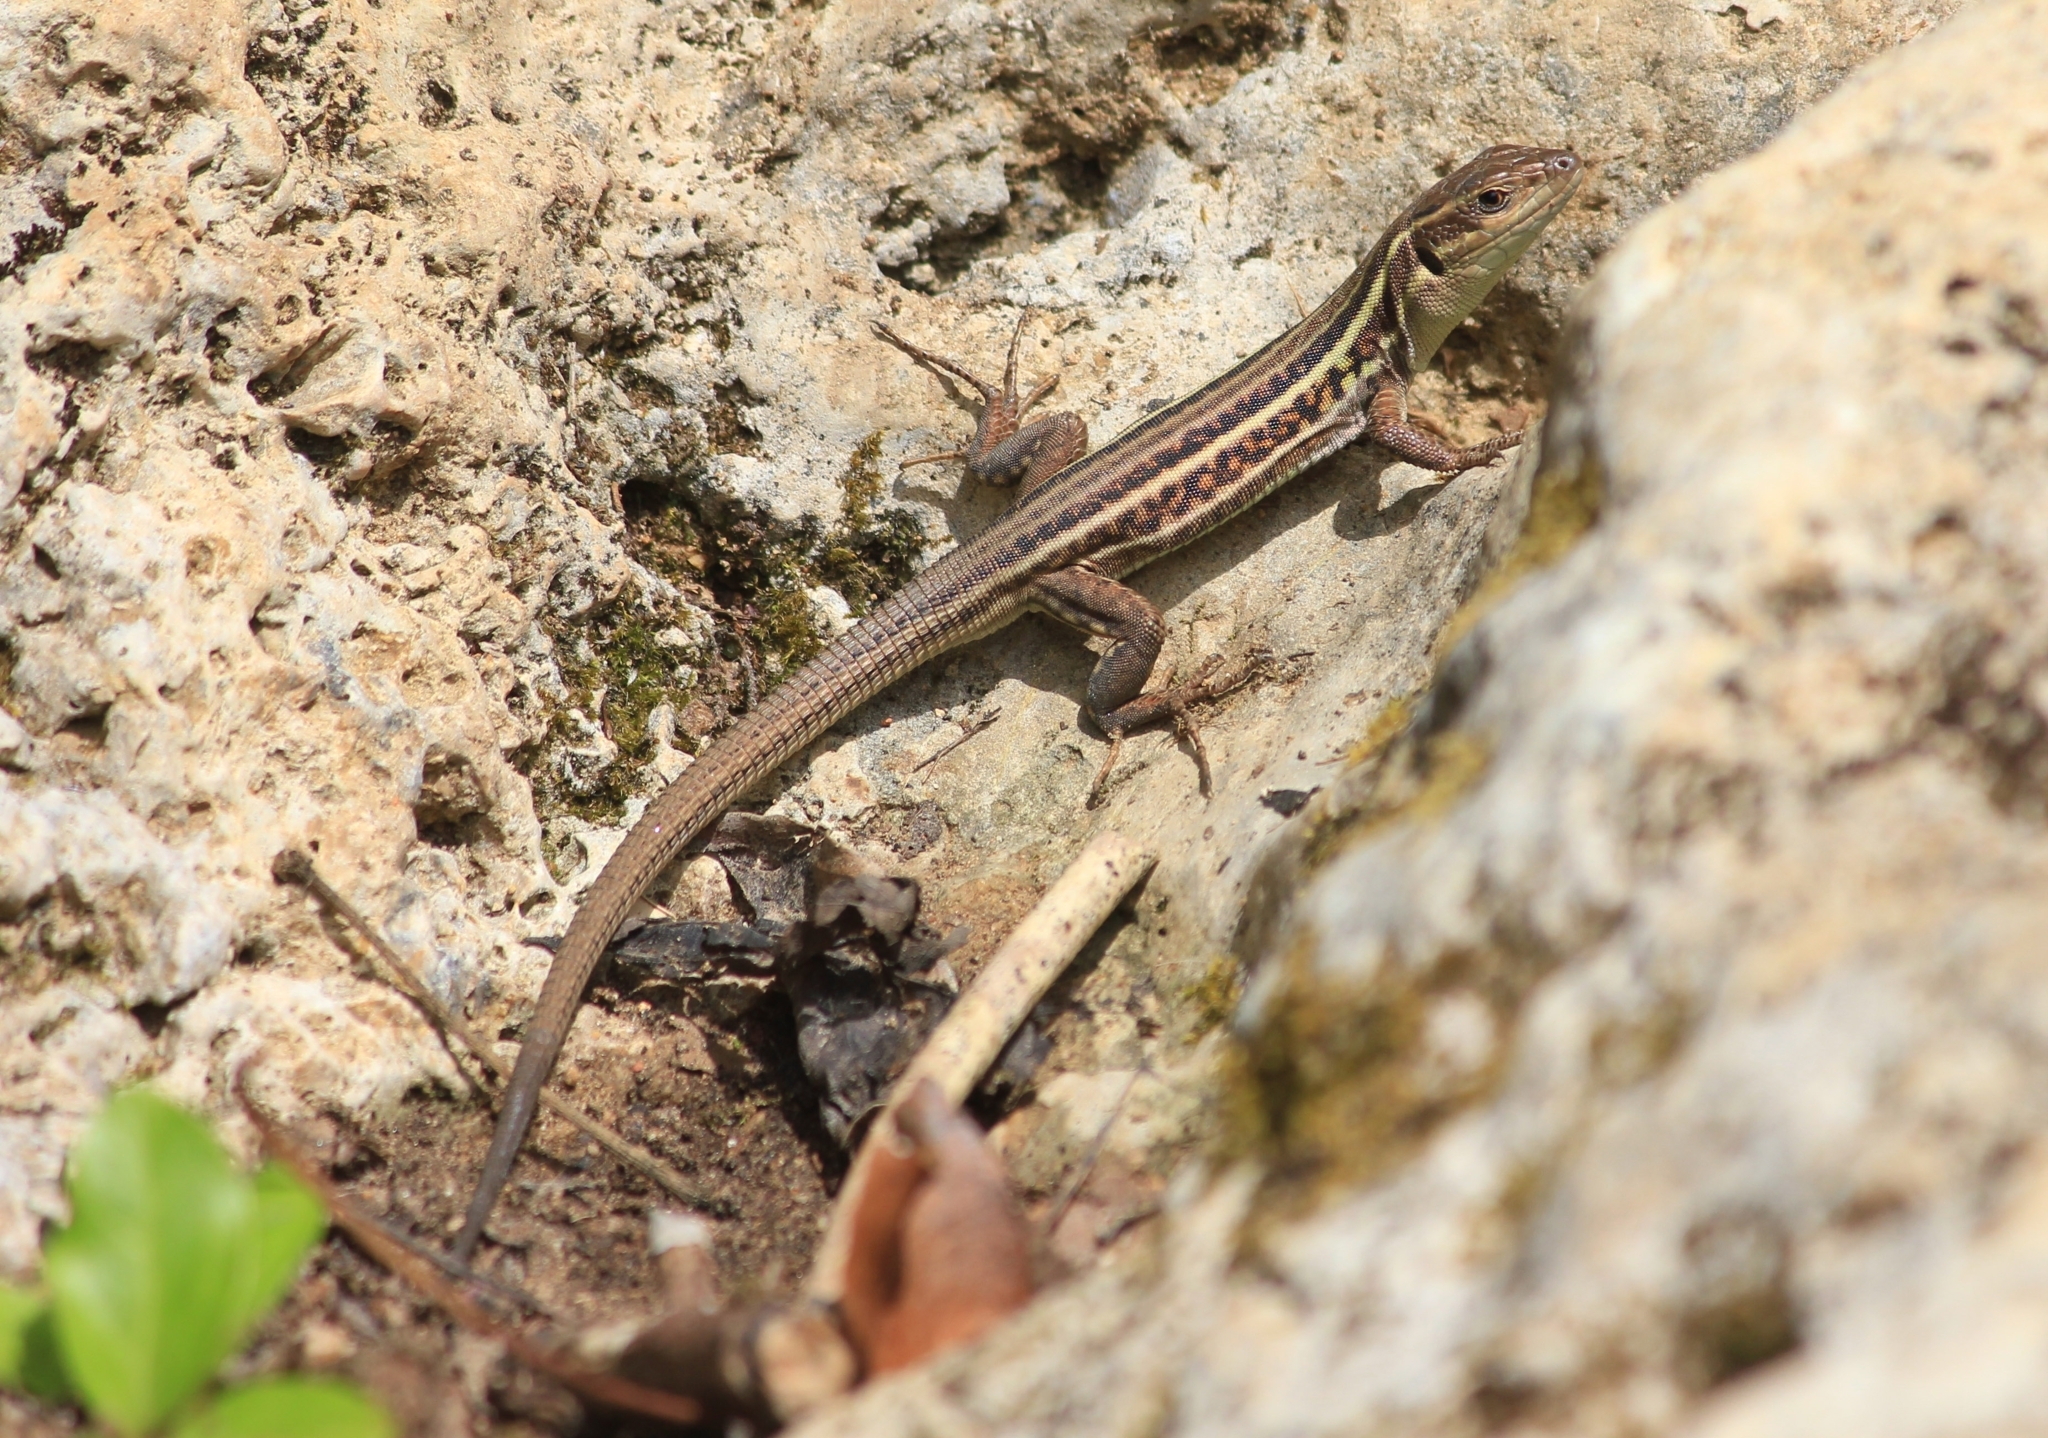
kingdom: Animalia
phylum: Chordata
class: Squamata
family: Lacertidae
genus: Podarcis
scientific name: Podarcis peloponnesiacus
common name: Peloponnese wall lizard
